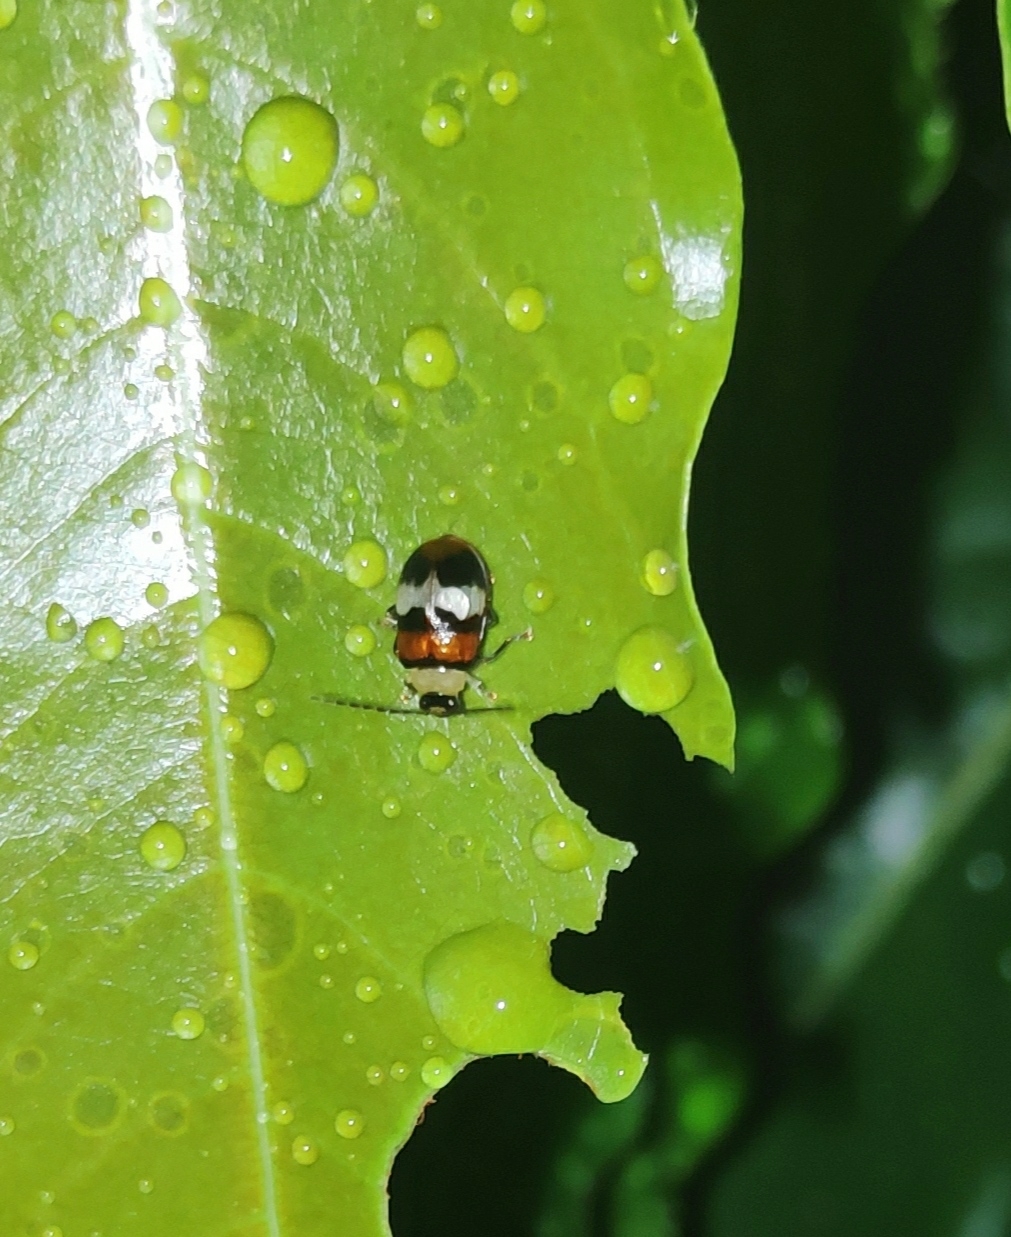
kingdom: Animalia
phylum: Arthropoda
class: Insecta
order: Coleoptera
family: Chrysomelidae
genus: Dercetina
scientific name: Dercetina
